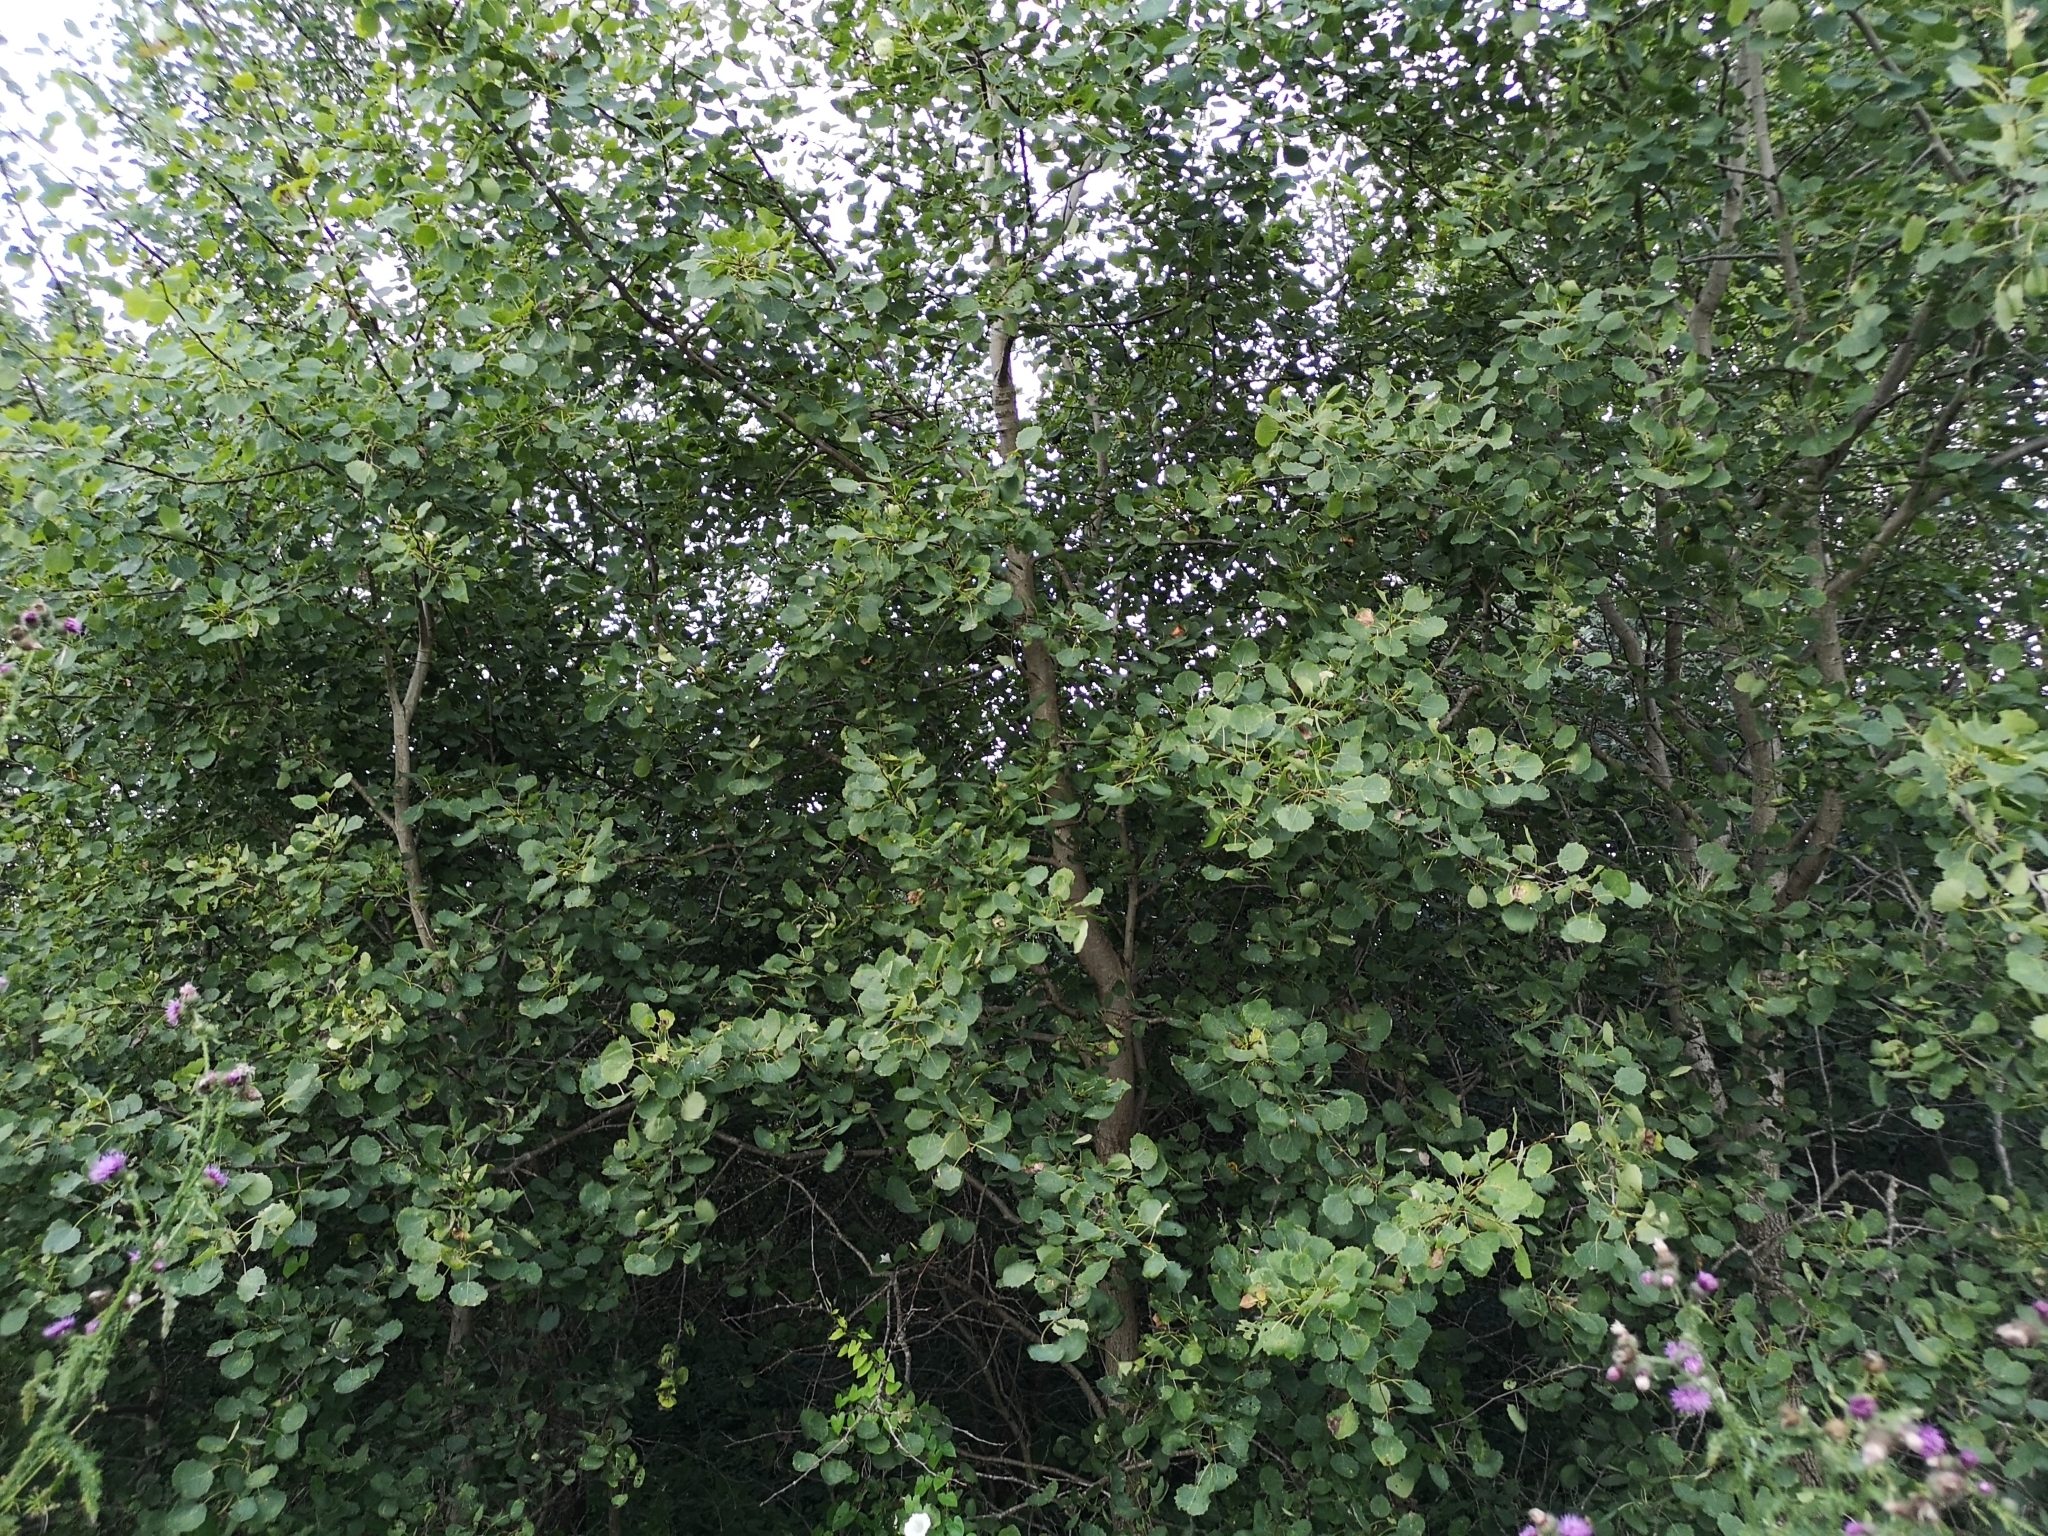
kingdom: Plantae
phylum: Tracheophyta
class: Magnoliopsida
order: Malpighiales
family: Salicaceae
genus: Populus
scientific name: Populus tremula
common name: European aspen
